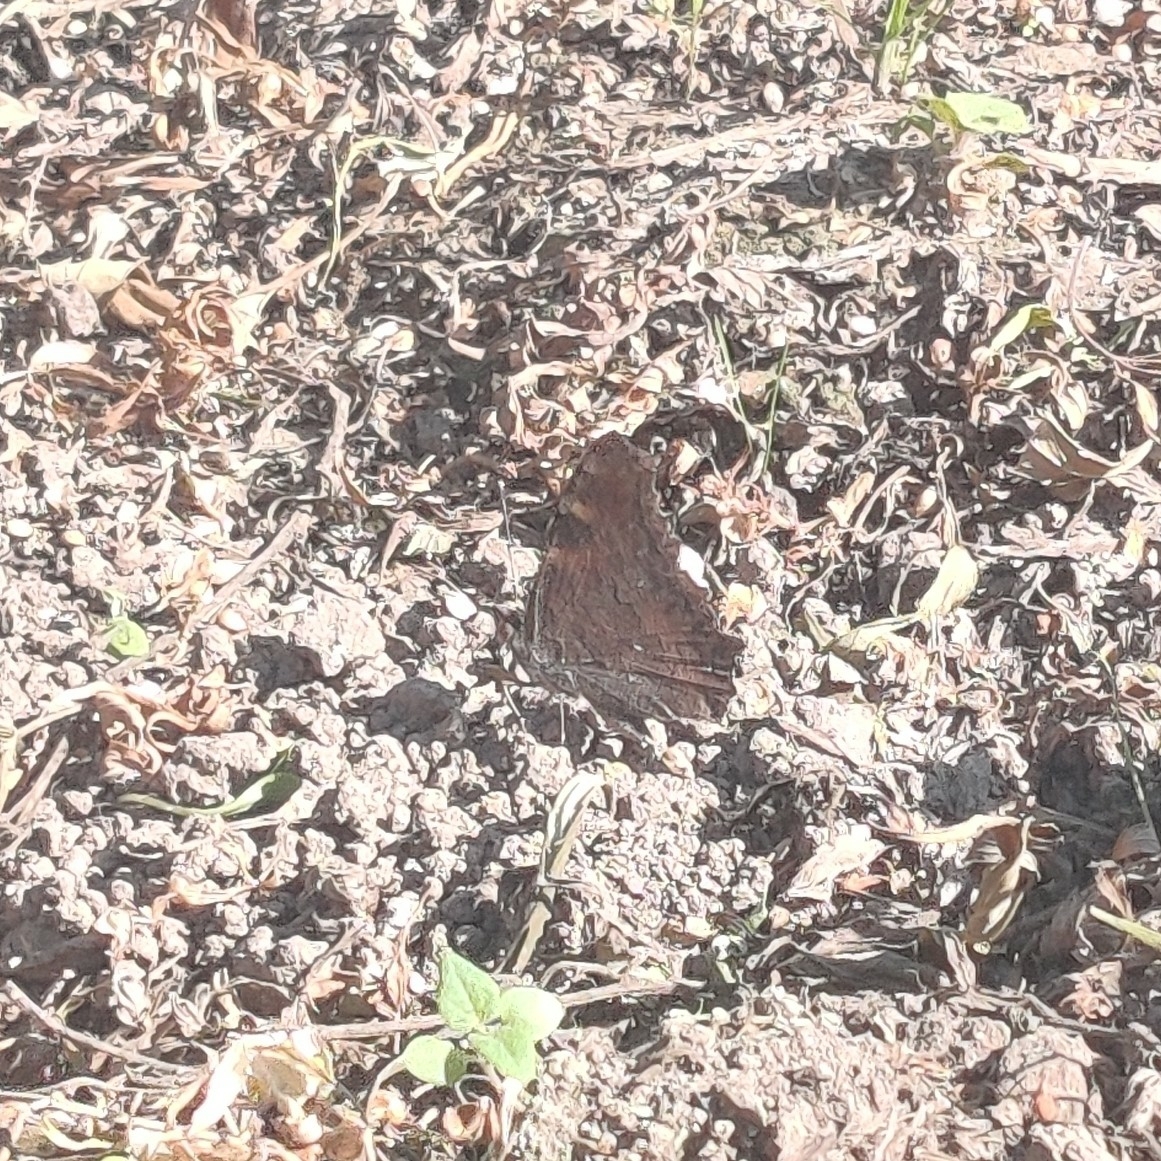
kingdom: Animalia
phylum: Arthropoda
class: Insecta
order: Lepidoptera
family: Nymphalidae
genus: Aglais
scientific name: Aglais caschmirensis
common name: Indian tortoiseshell
